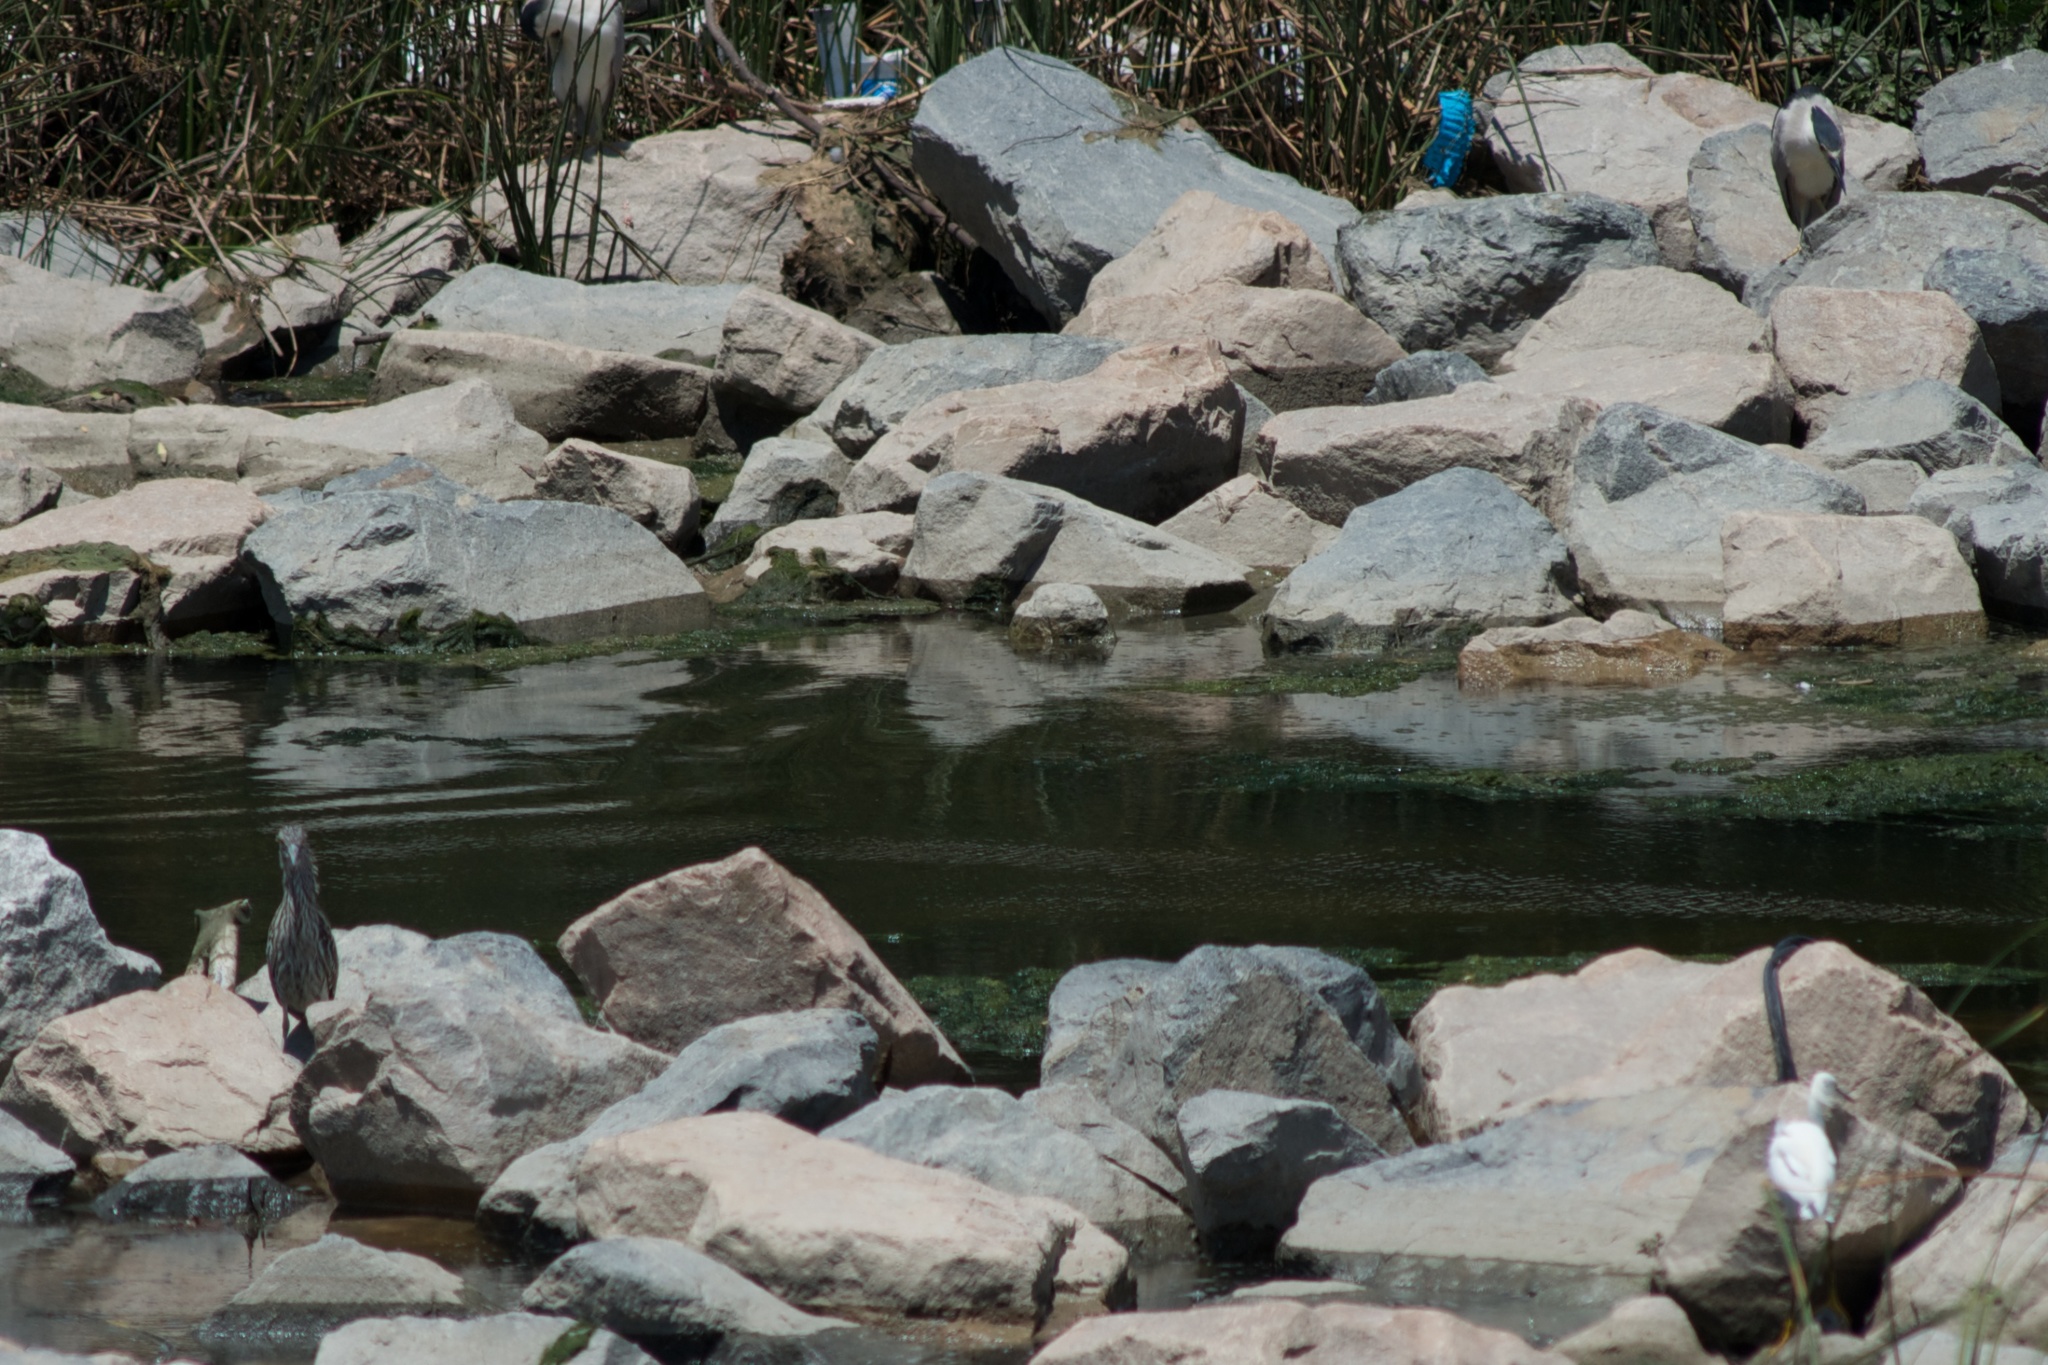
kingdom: Animalia
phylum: Chordata
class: Aves
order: Pelecaniformes
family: Ardeidae
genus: Nycticorax
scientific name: Nycticorax nycticorax
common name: Black-crowned night heron
